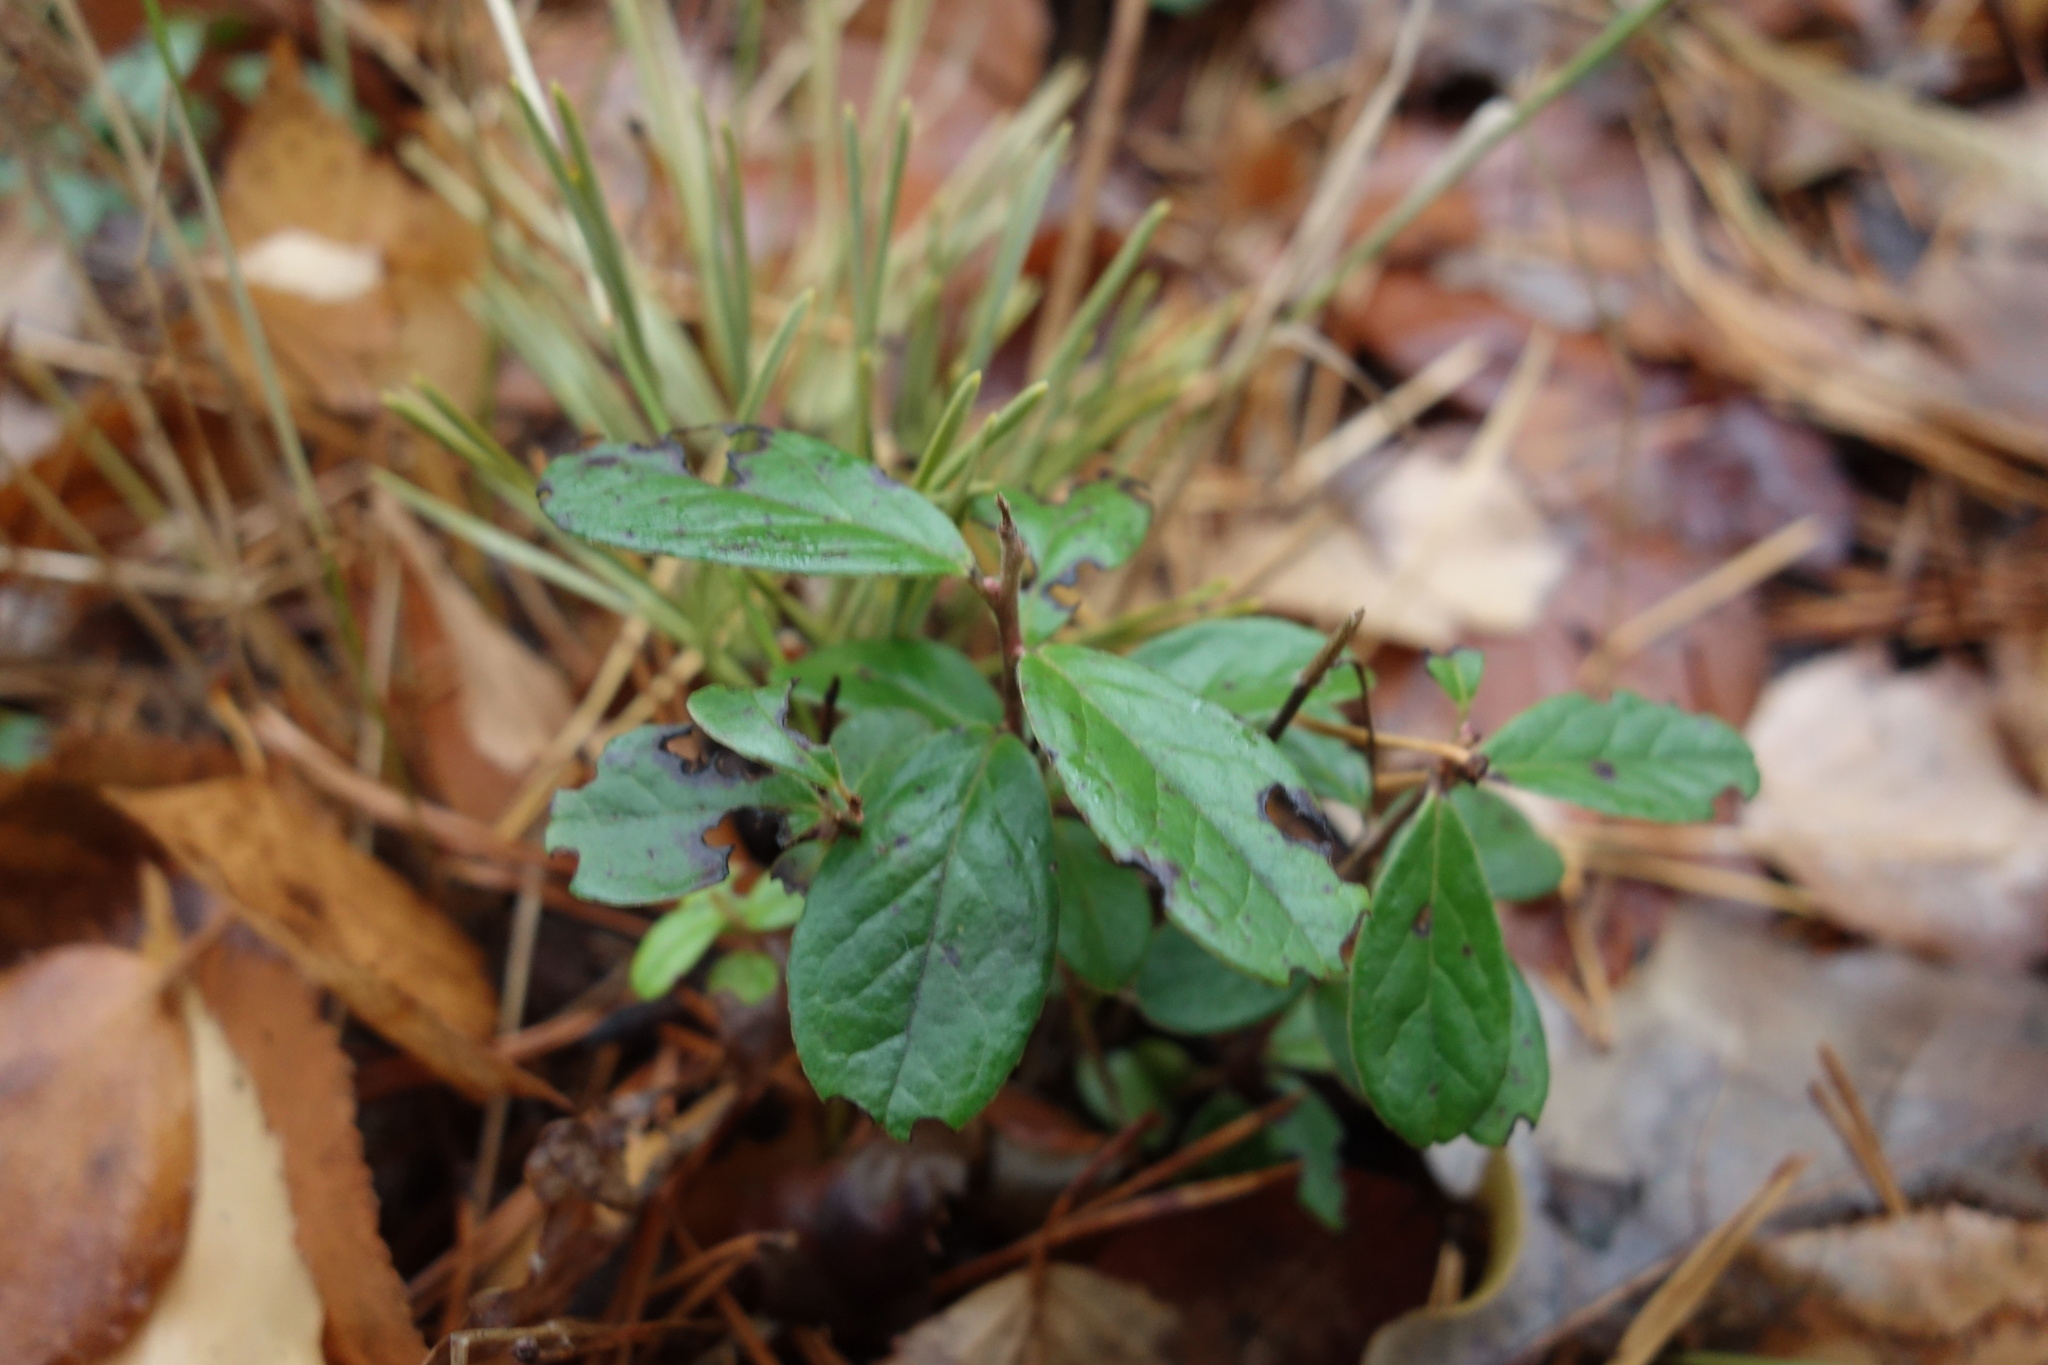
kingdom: Plantae
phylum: Tracheophyta
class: Magnoliopsida
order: Ericales
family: Ericaceae
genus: Vaccinium
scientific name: Vaccinium vitis-idaea
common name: Cowberry
